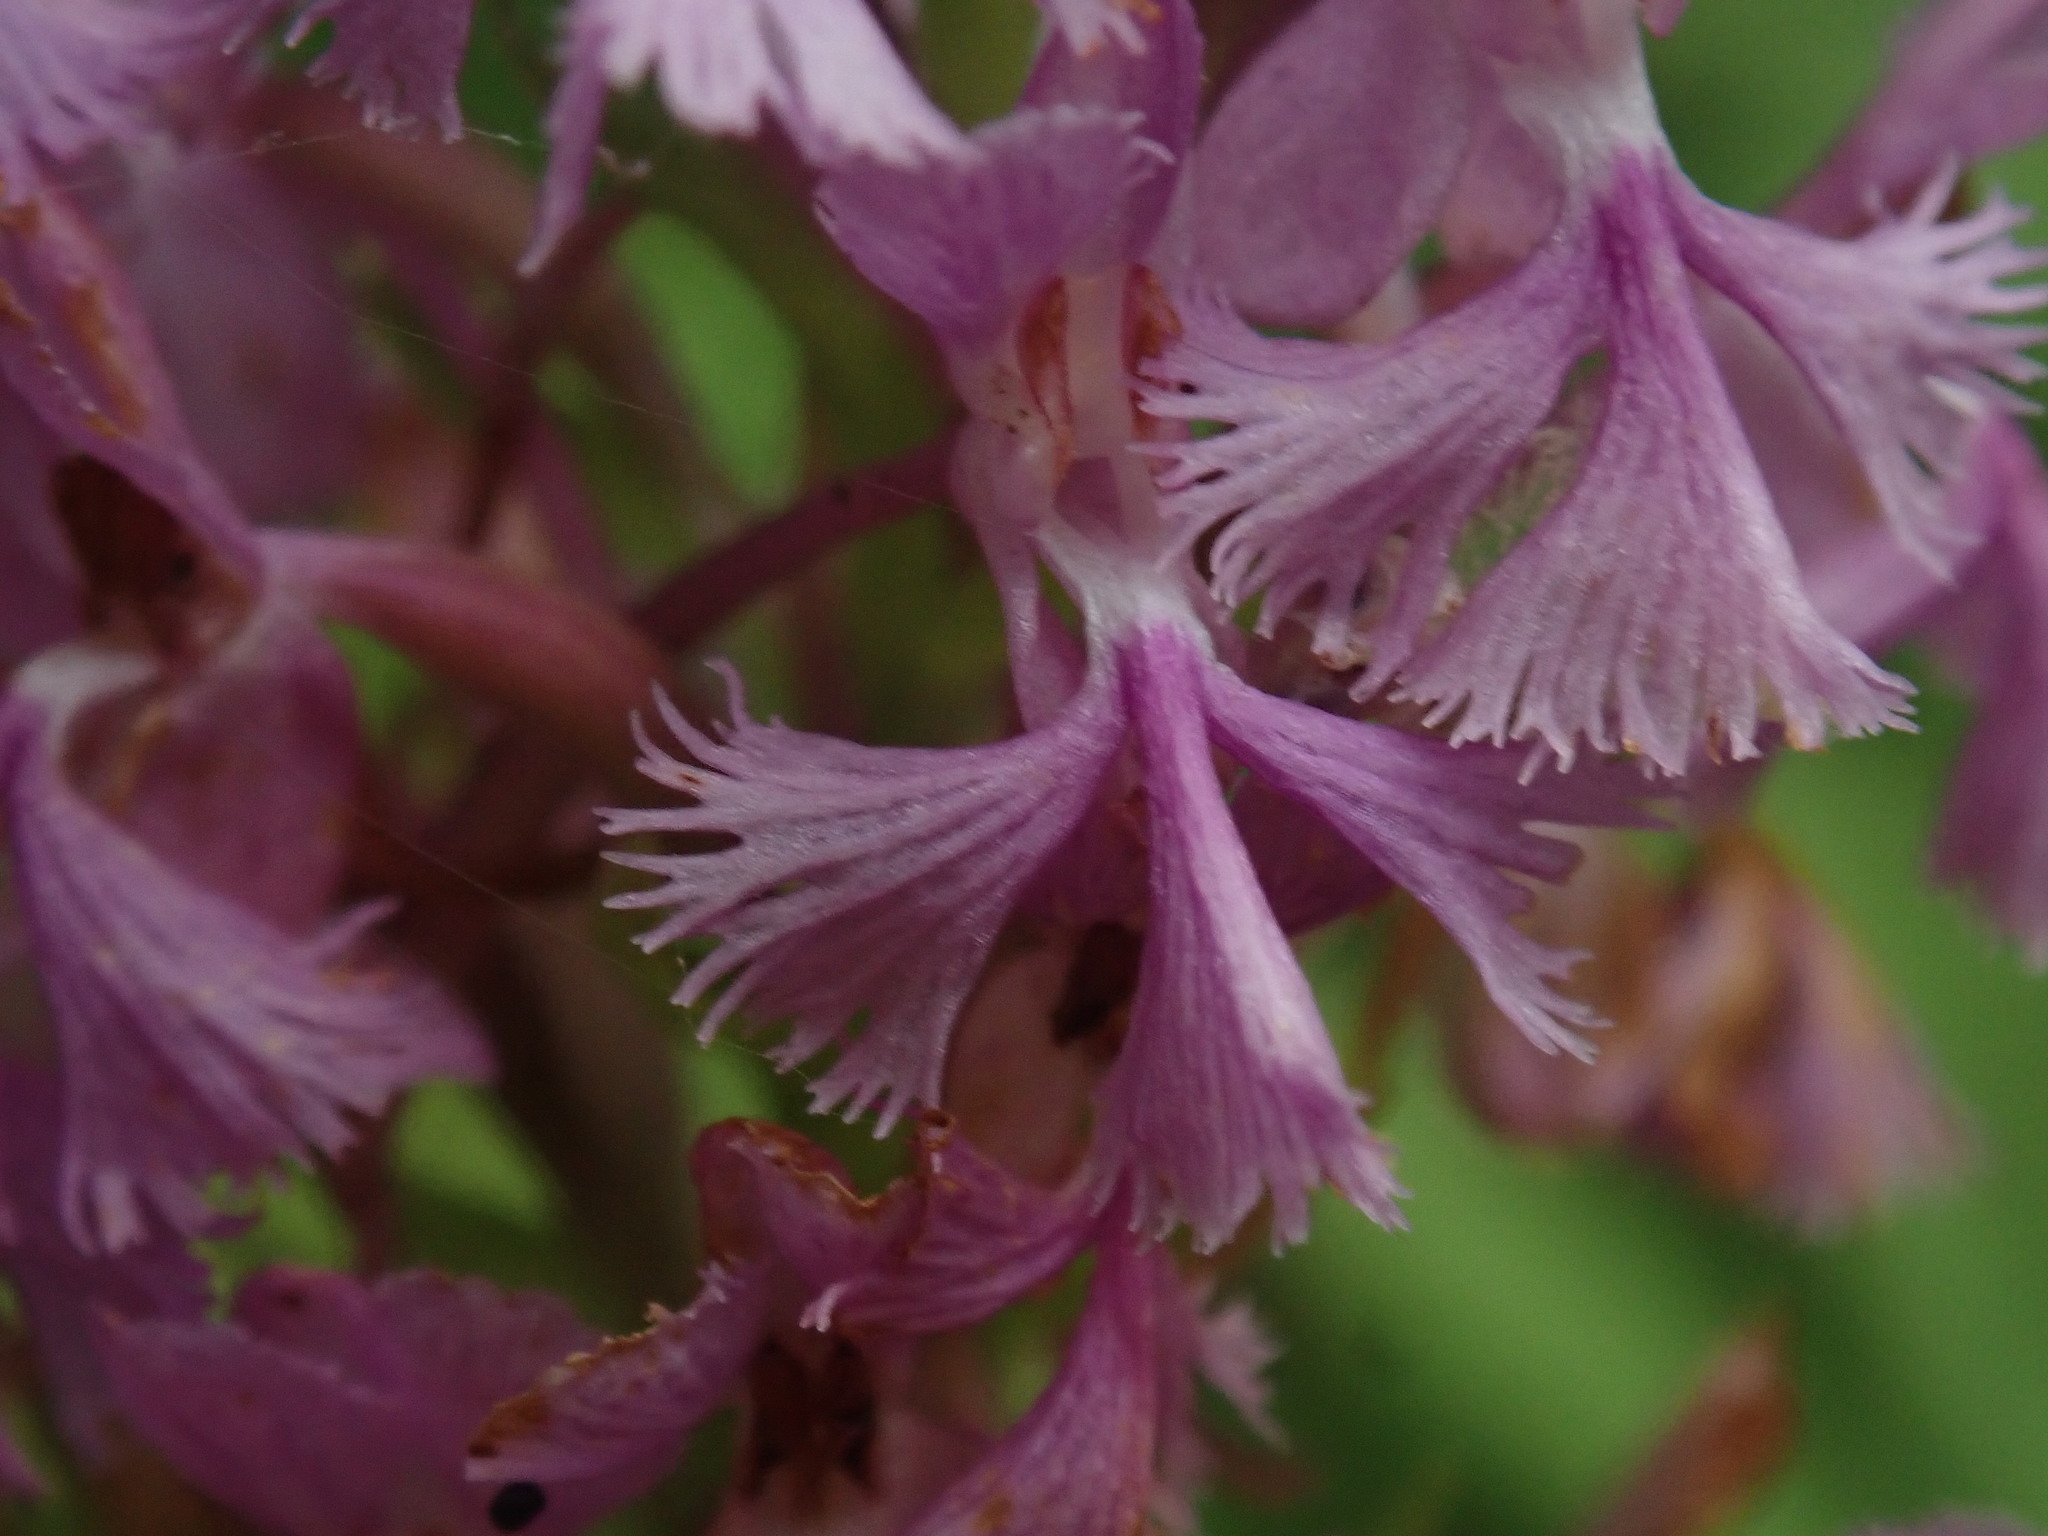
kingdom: Plantae
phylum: Tracheophyta
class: Liliopsida
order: Asparagales
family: Orchidaceae
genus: Platanthera
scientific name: Platanthera psycodes
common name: Lesser purple fringed orchid
